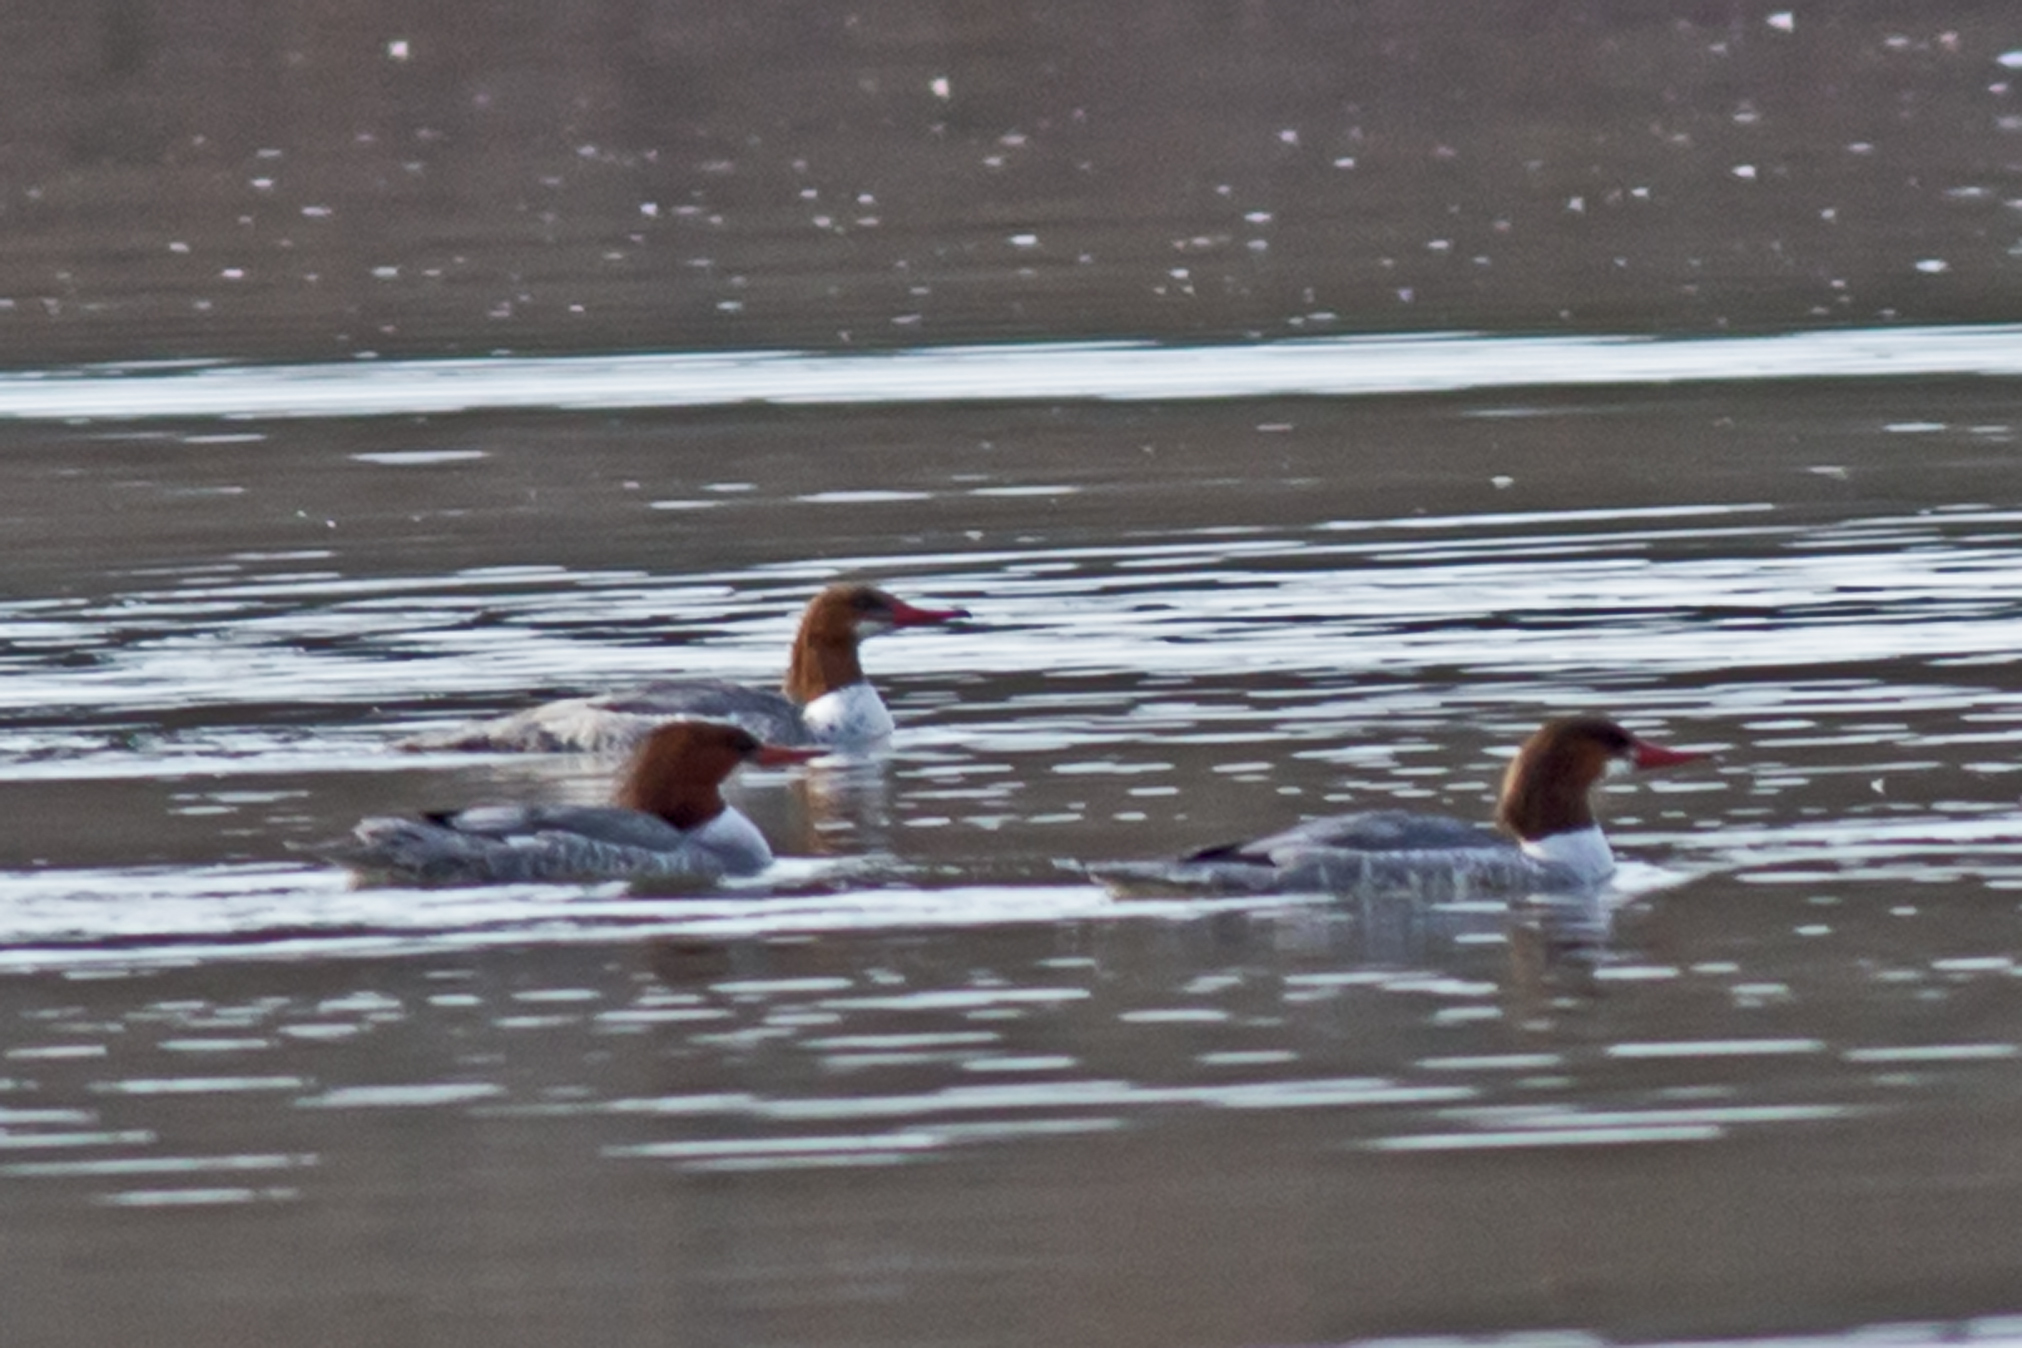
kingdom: Animalia
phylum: Chordata
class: Aves
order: Anseriformes
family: Anatidae
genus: Mergus
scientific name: Mergus merganser
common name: Common merganser
